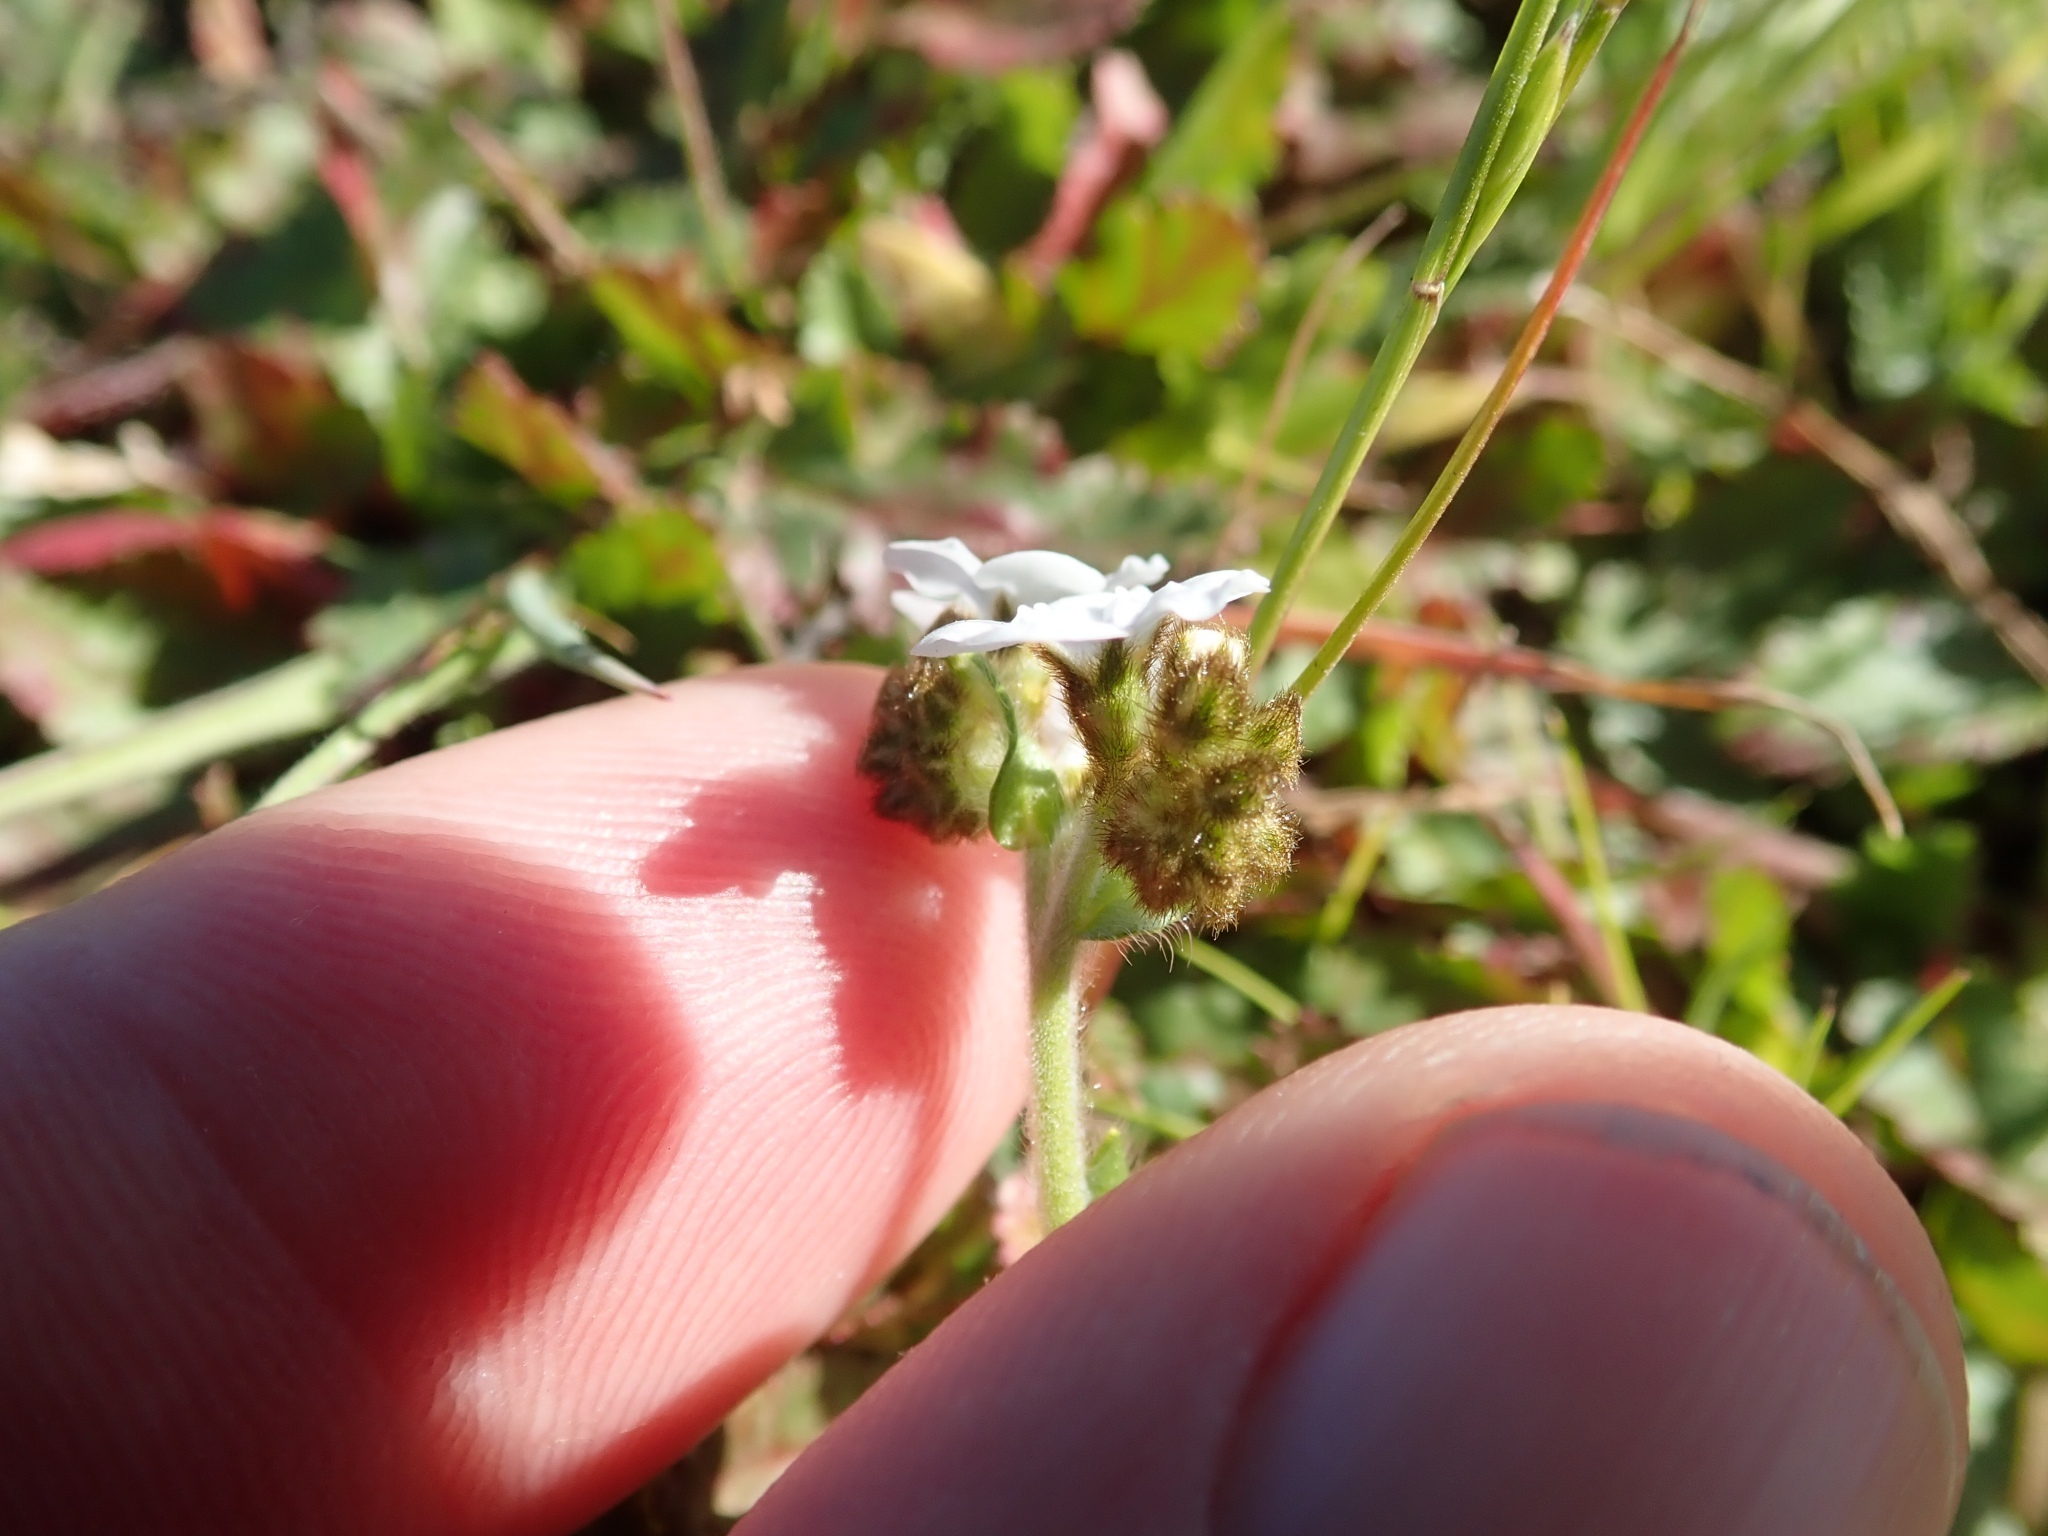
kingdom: Plantae
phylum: Tracheophyta
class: Magnoliopsida
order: Boraginales
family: Boraginaceae
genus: Plagiobothrys
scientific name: Plagiobothrys nothofulvus
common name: Popcorn-flower
